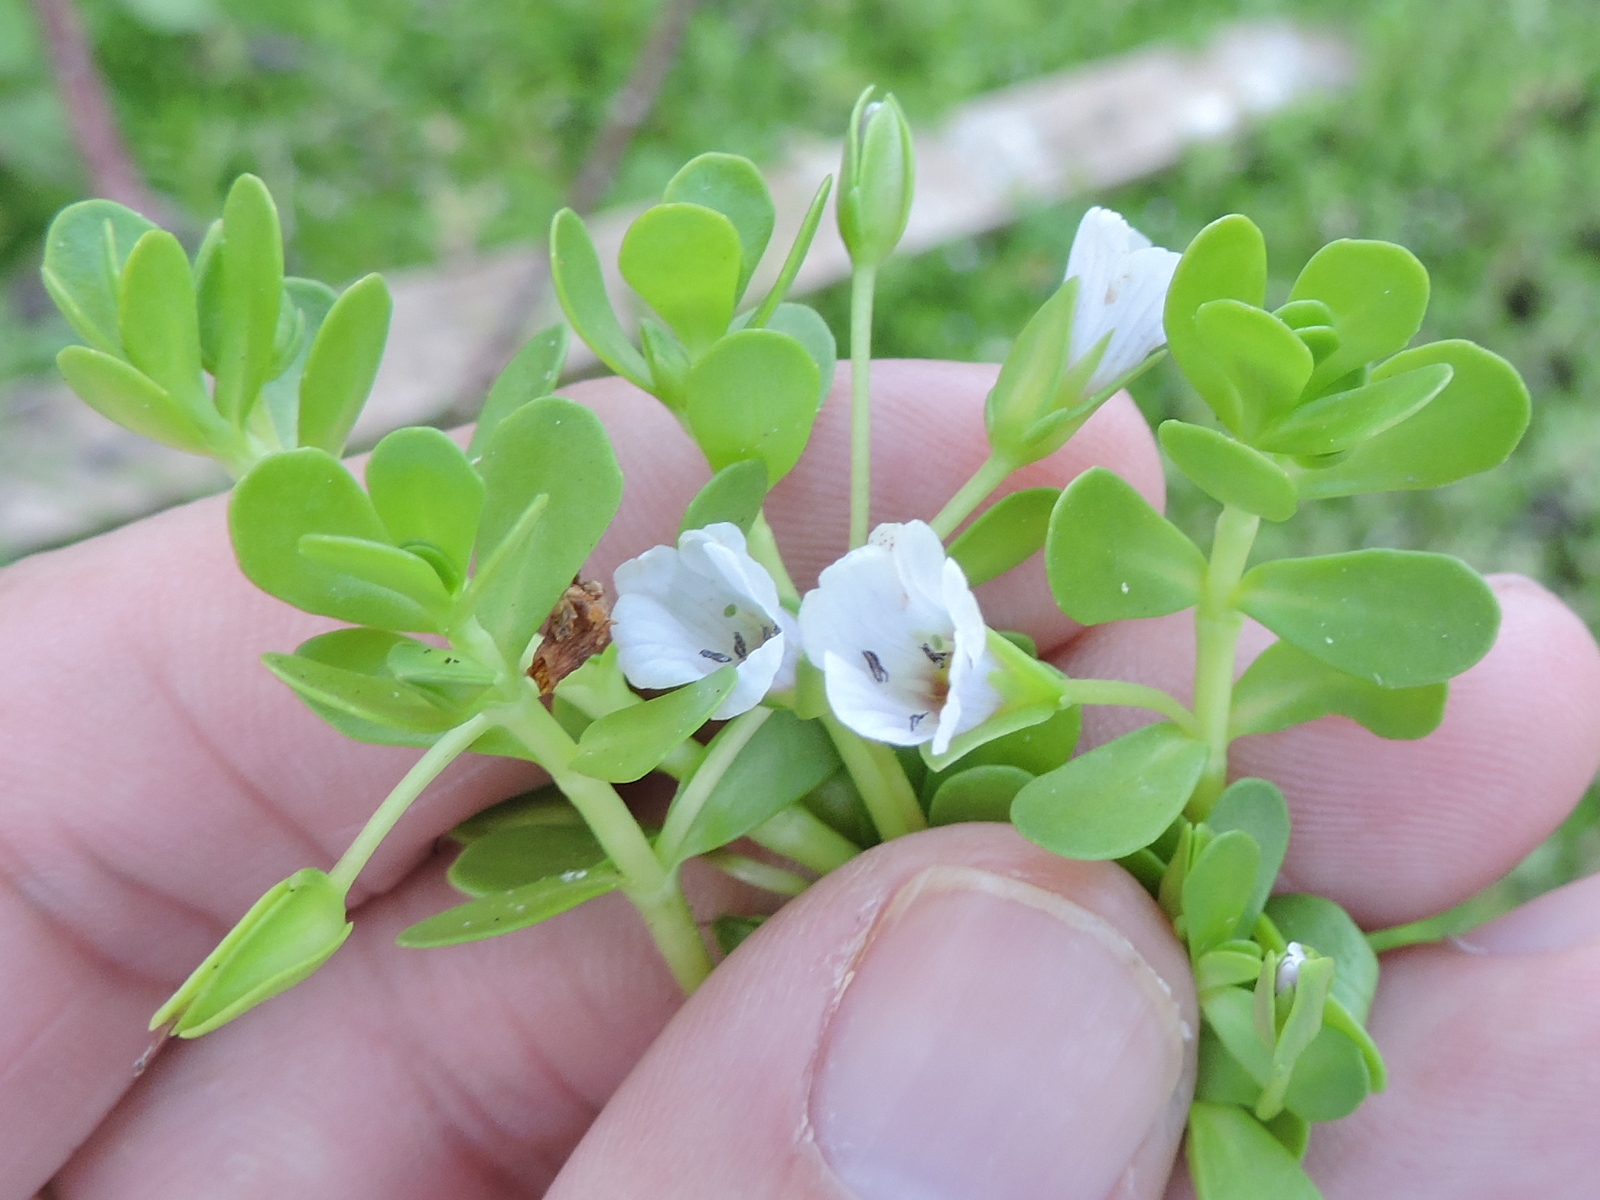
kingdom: Plantae
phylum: Tracheophyta
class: Magnoliopsida
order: Lamiales
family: Plantaginaceae
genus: Bacopa
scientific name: Bacopa monnieri
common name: Indian-pennywort
